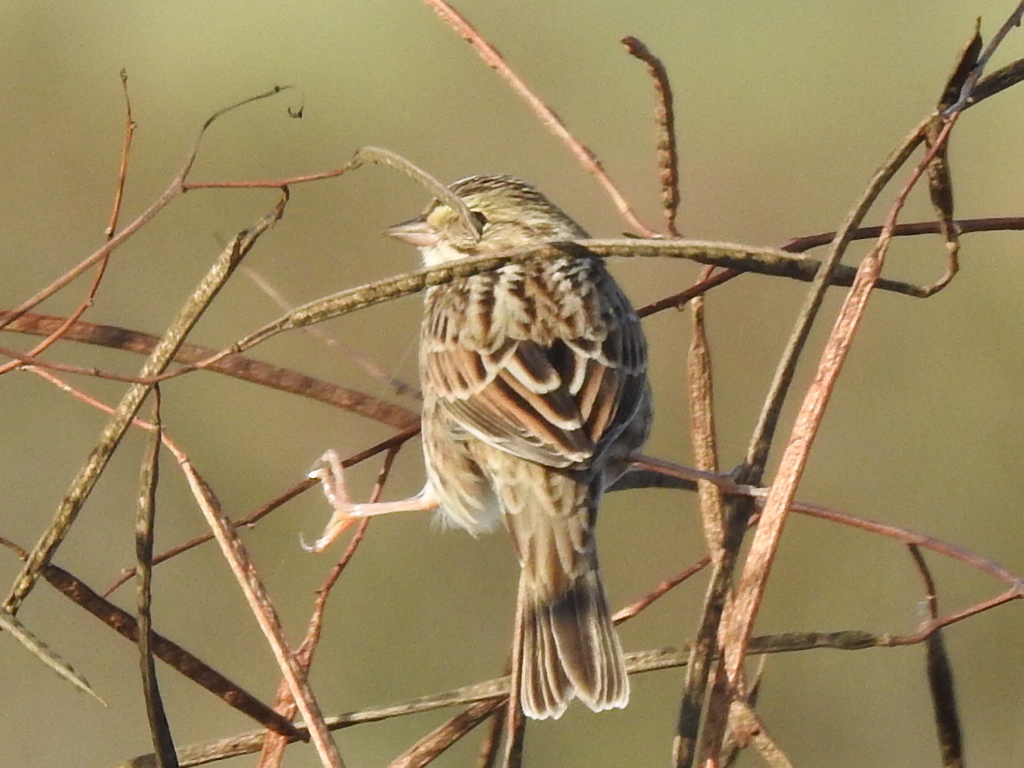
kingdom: Animalia
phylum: Chordata
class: Aves
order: Passeriformes
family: Passerellidae
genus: Passerculus
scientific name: Passerculus sandwichensis
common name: Savannah sparrow
